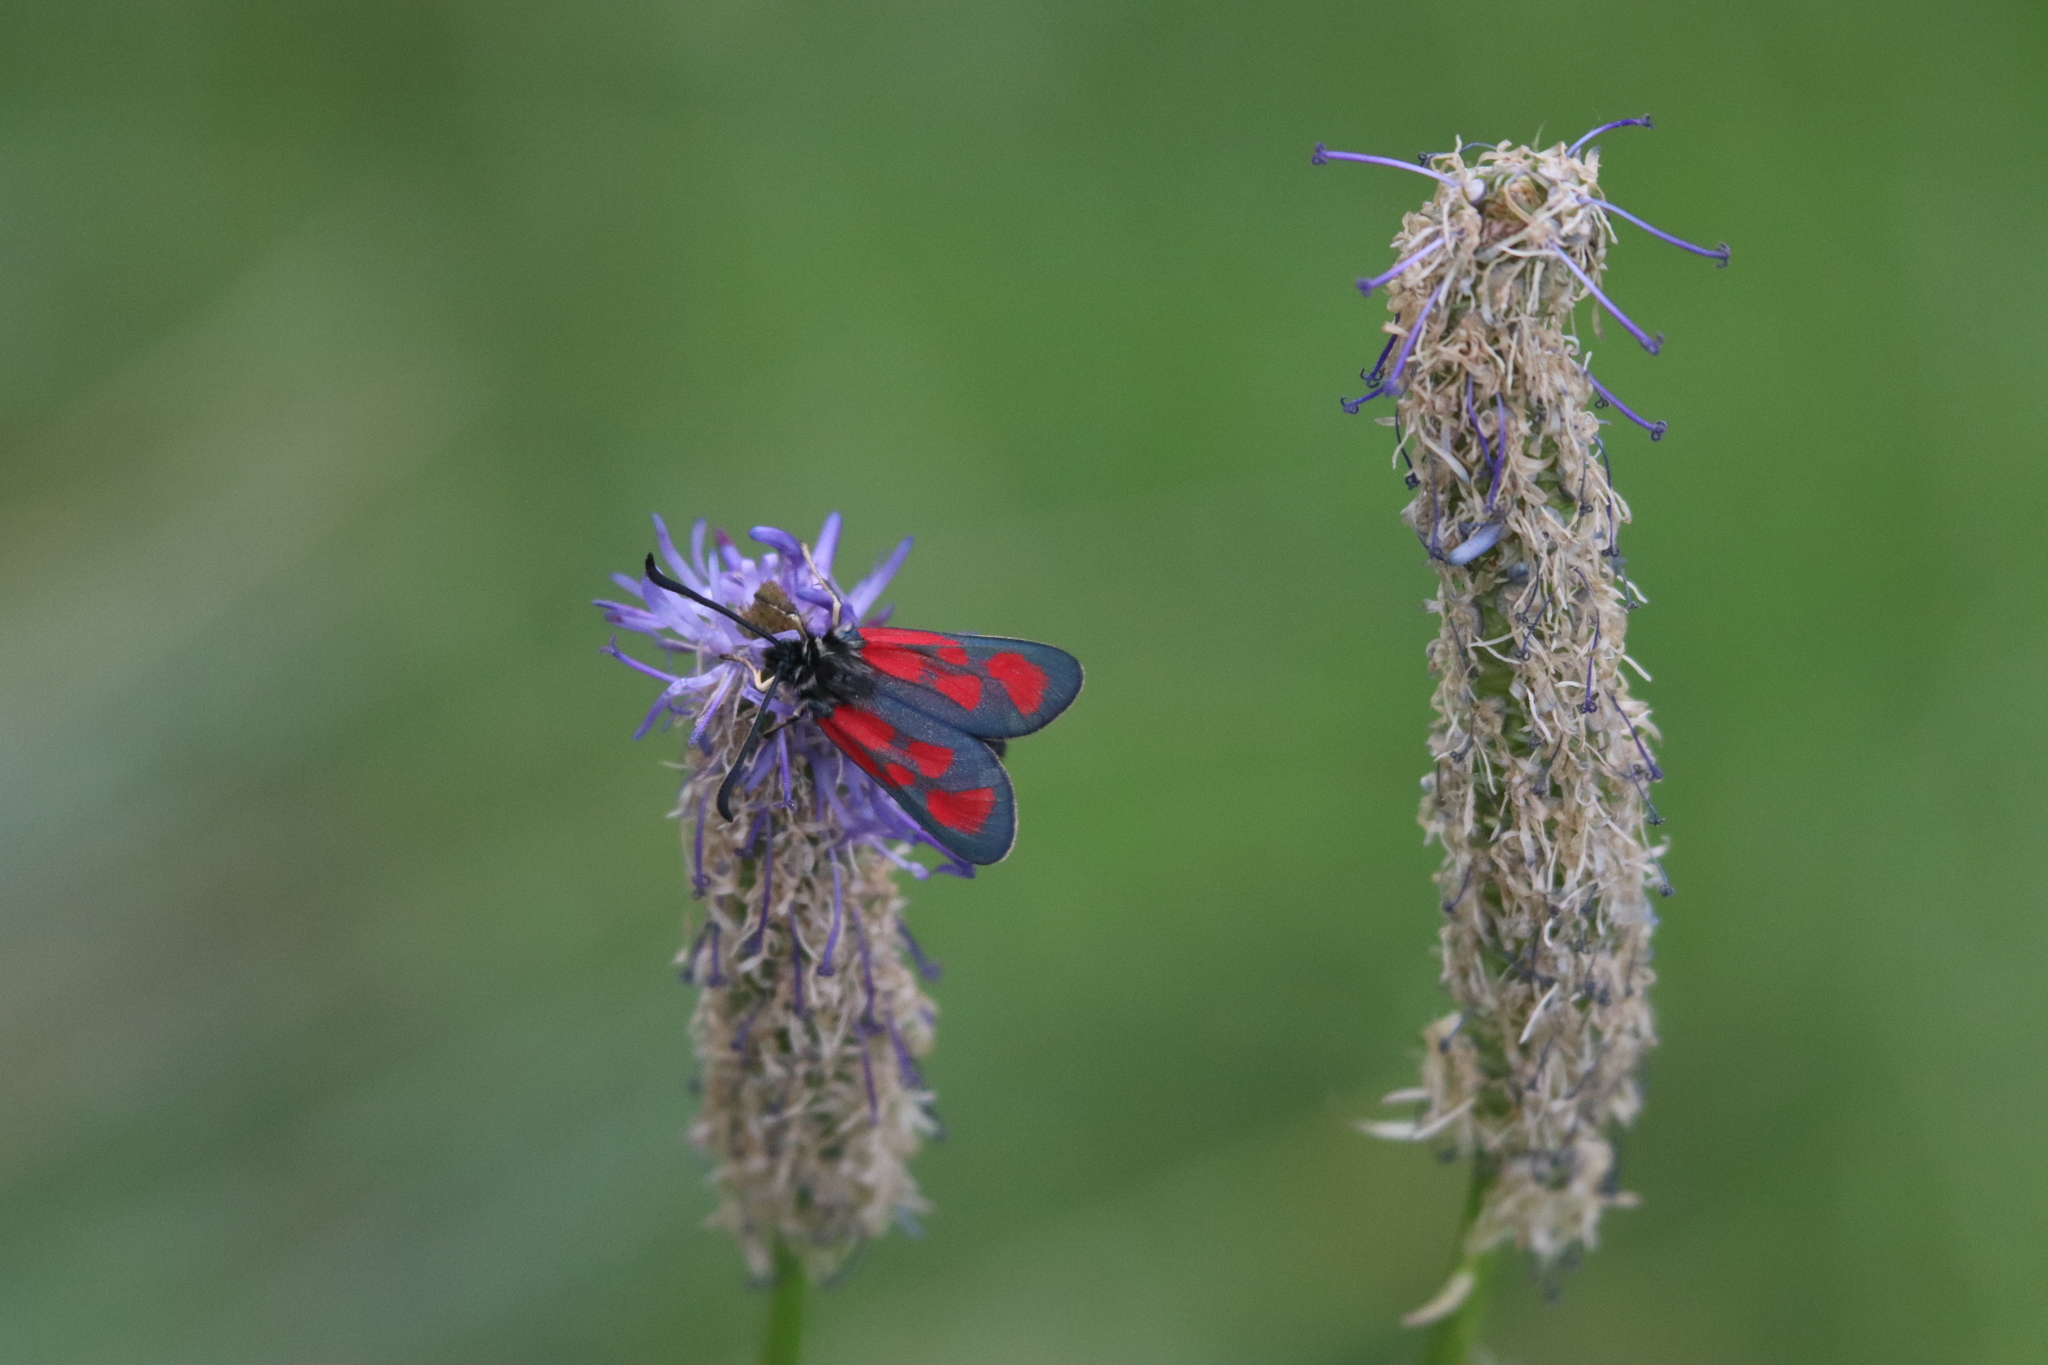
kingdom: Animalia
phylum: Arthropoda
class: Insecta
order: Lepidoptera
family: Zygaenidae
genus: Zygaena
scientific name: Zygaena loti
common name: Slender scotch burnet
